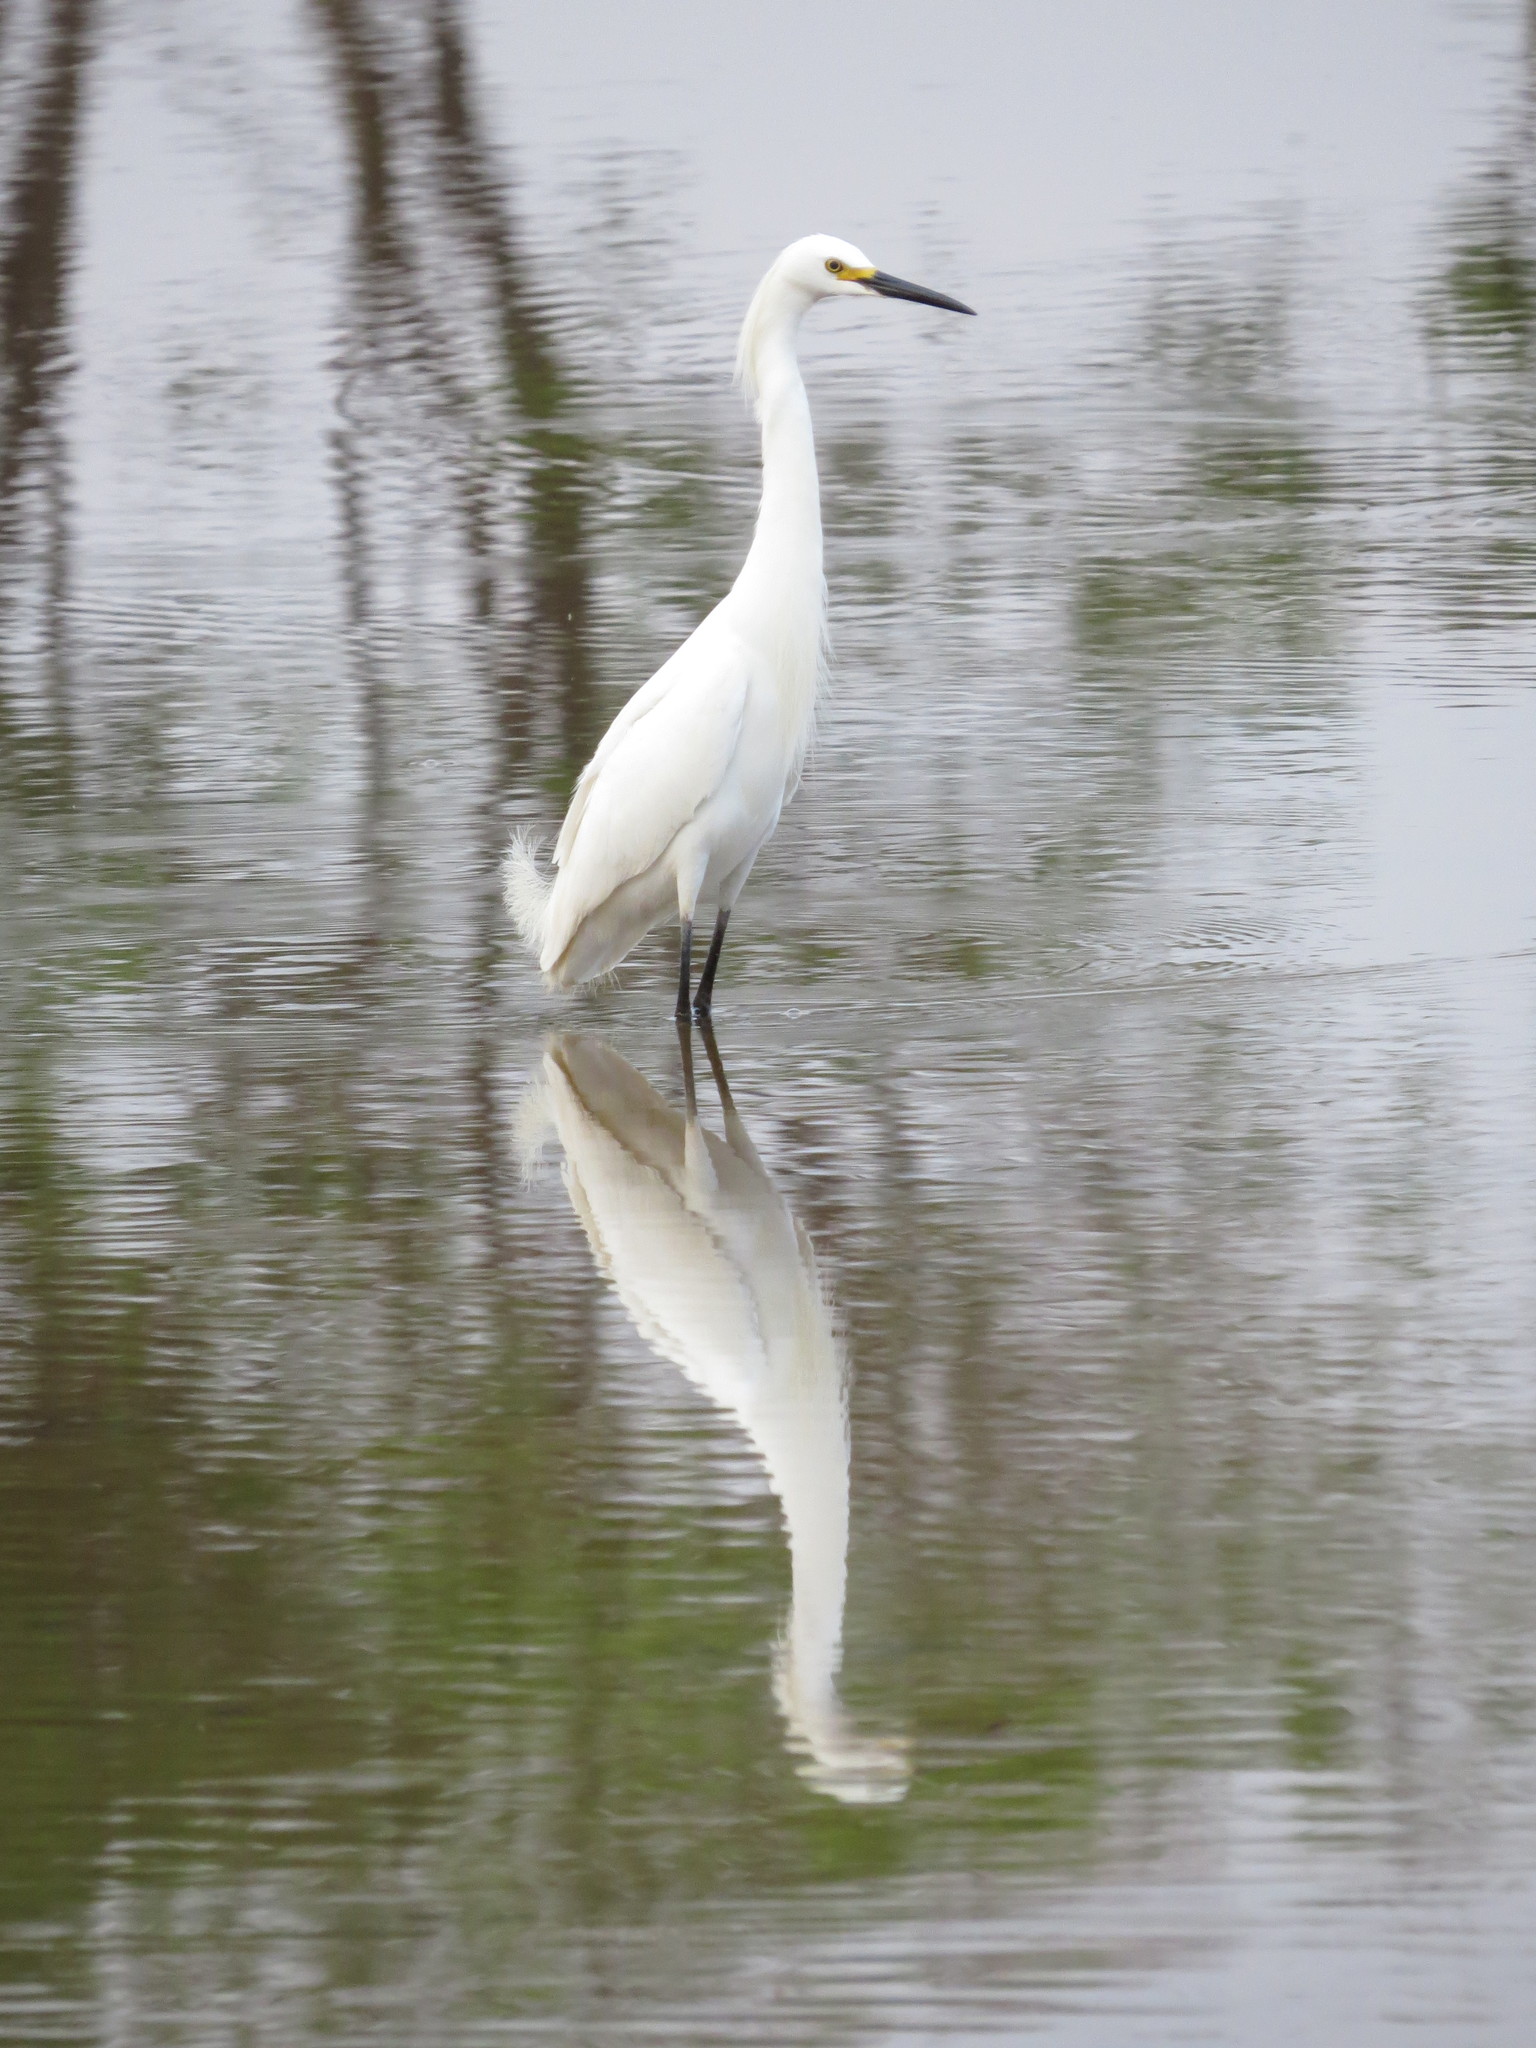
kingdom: Animalia
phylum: Chordata
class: Aves
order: Pelecaniformes
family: Ardeidae
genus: Egretta
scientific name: Egretta thula
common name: Snowy egret
